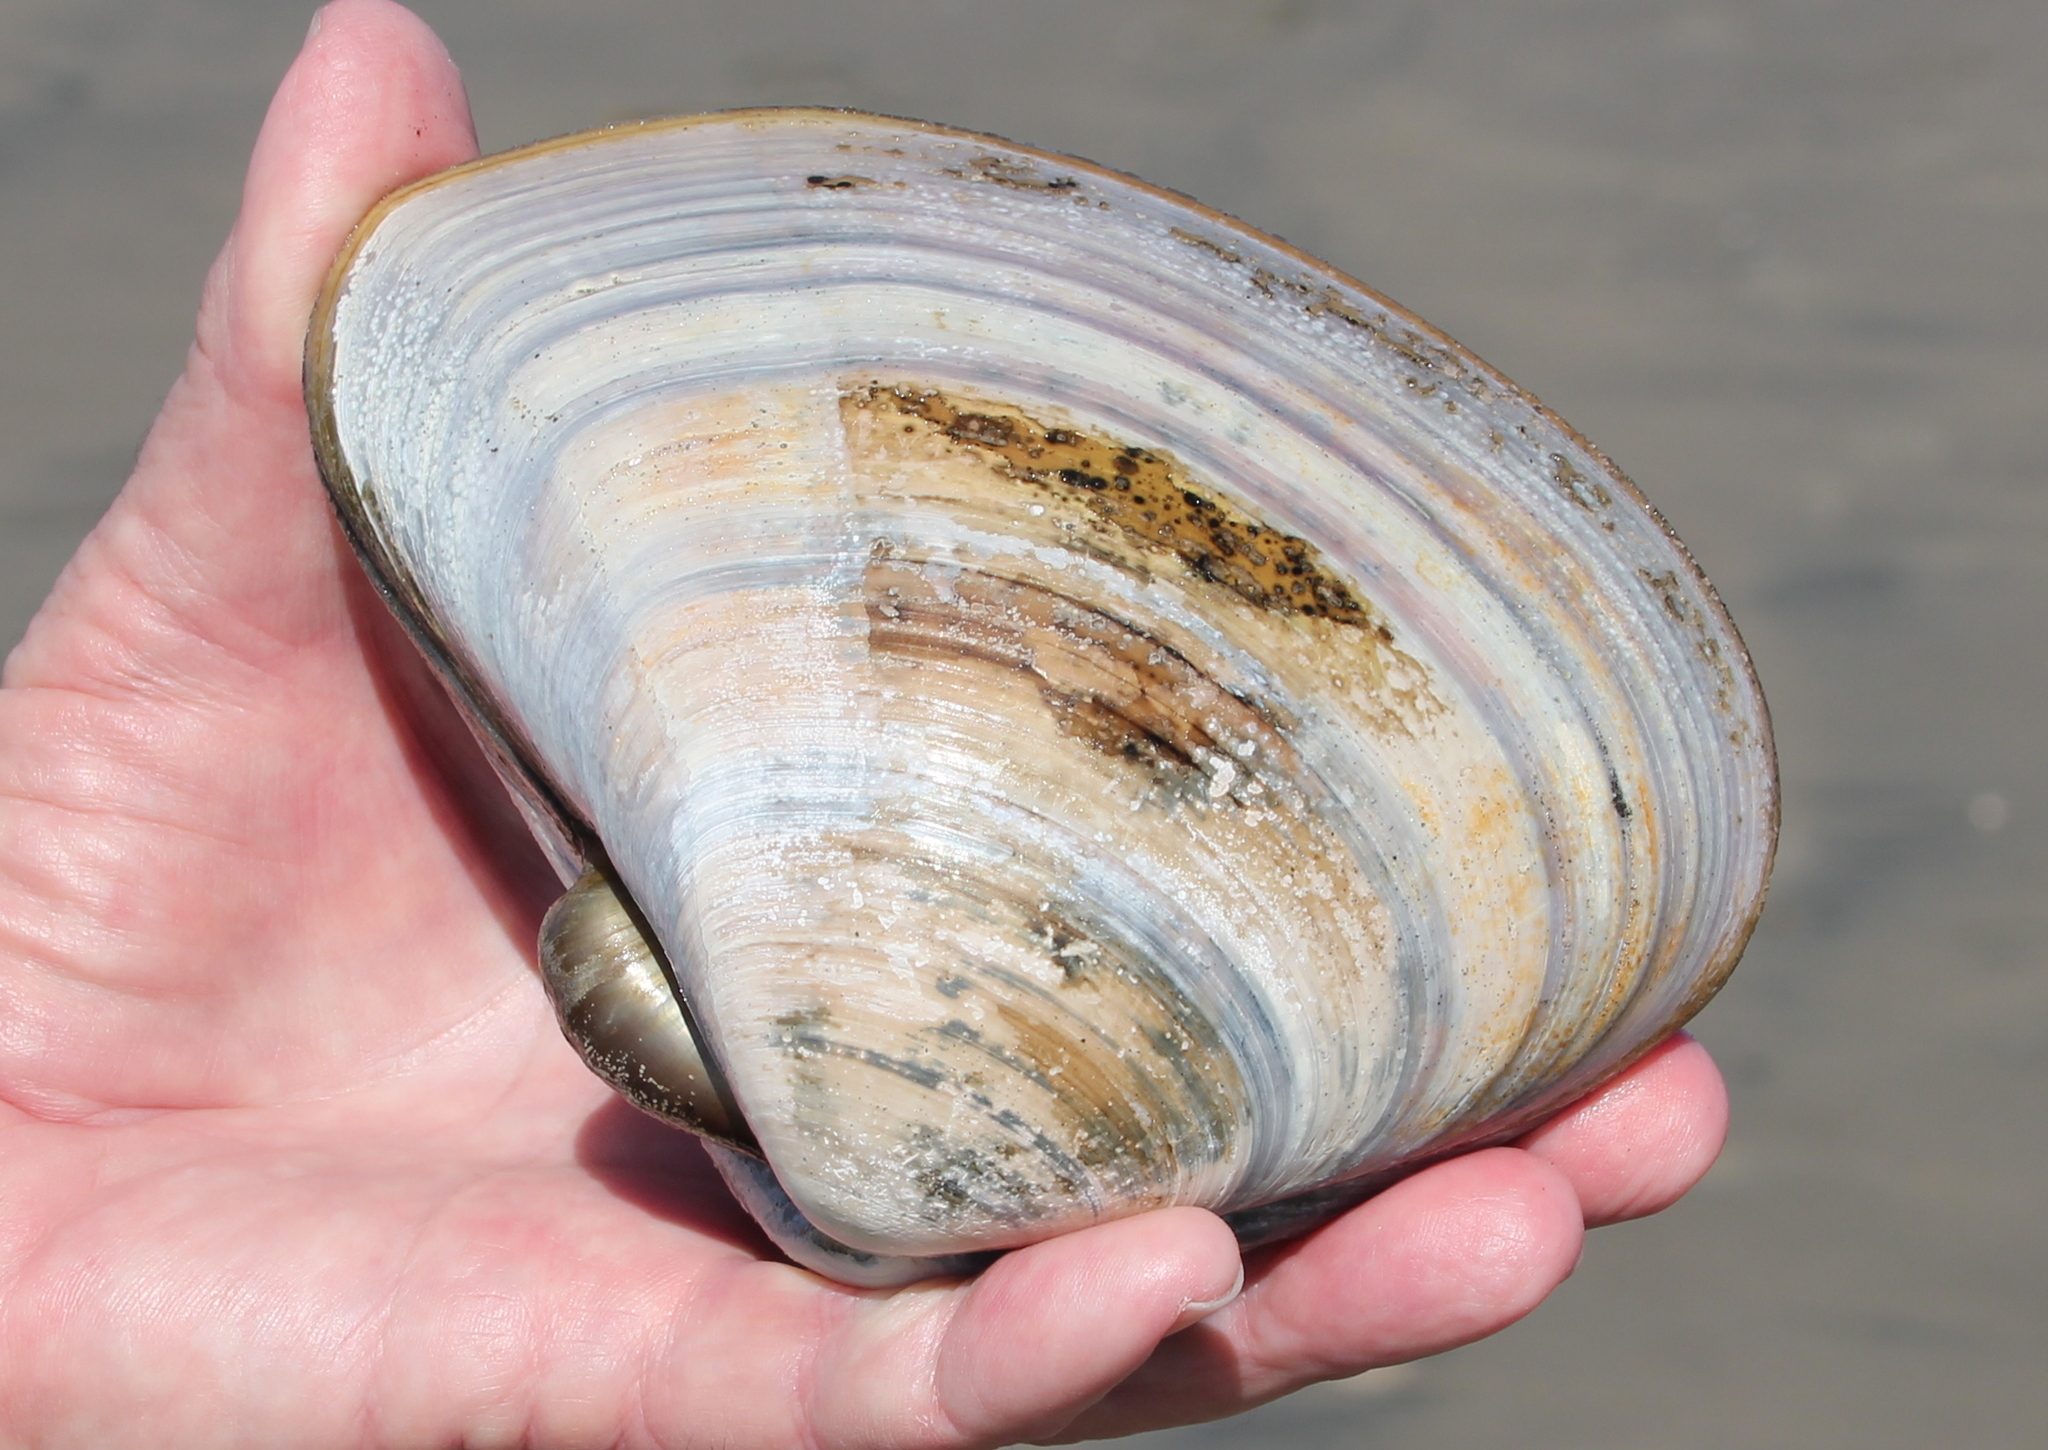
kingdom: Animalia
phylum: Mollusca
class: Bivalvia
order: Venerida
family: Veneridae
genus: Tivela
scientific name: Tivela stultorum
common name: Pismo clam
